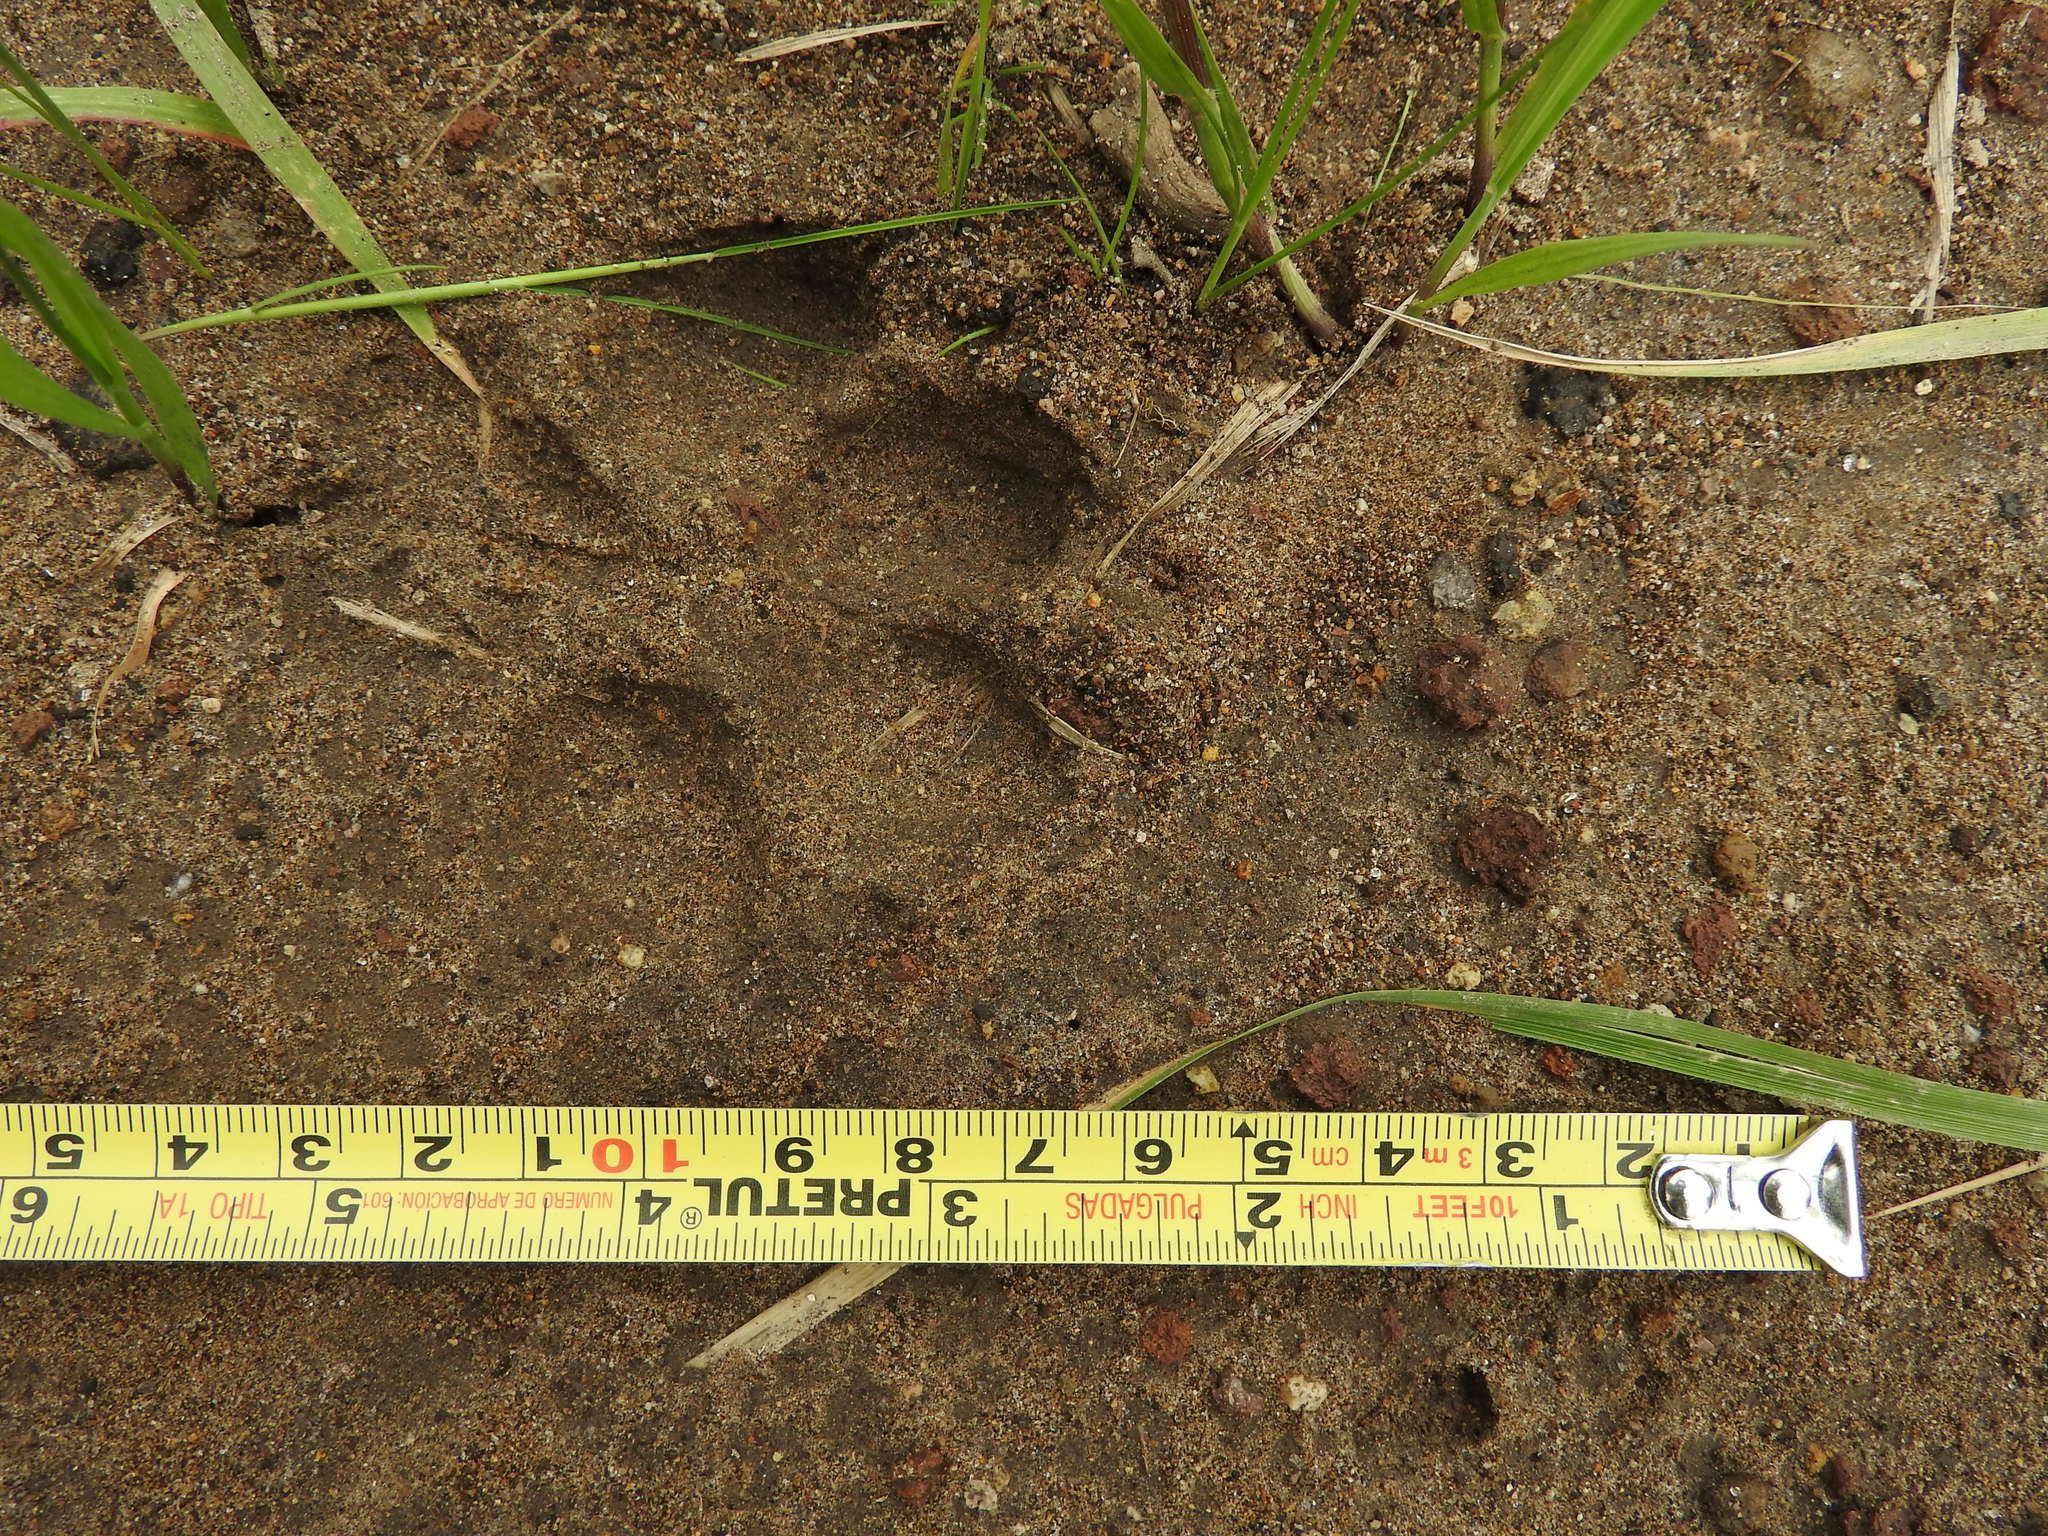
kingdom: Animalia
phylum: Chordata
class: Mammalia
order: Carnivora
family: Canidae
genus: Canis
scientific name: Canis latrans
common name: Coyote
